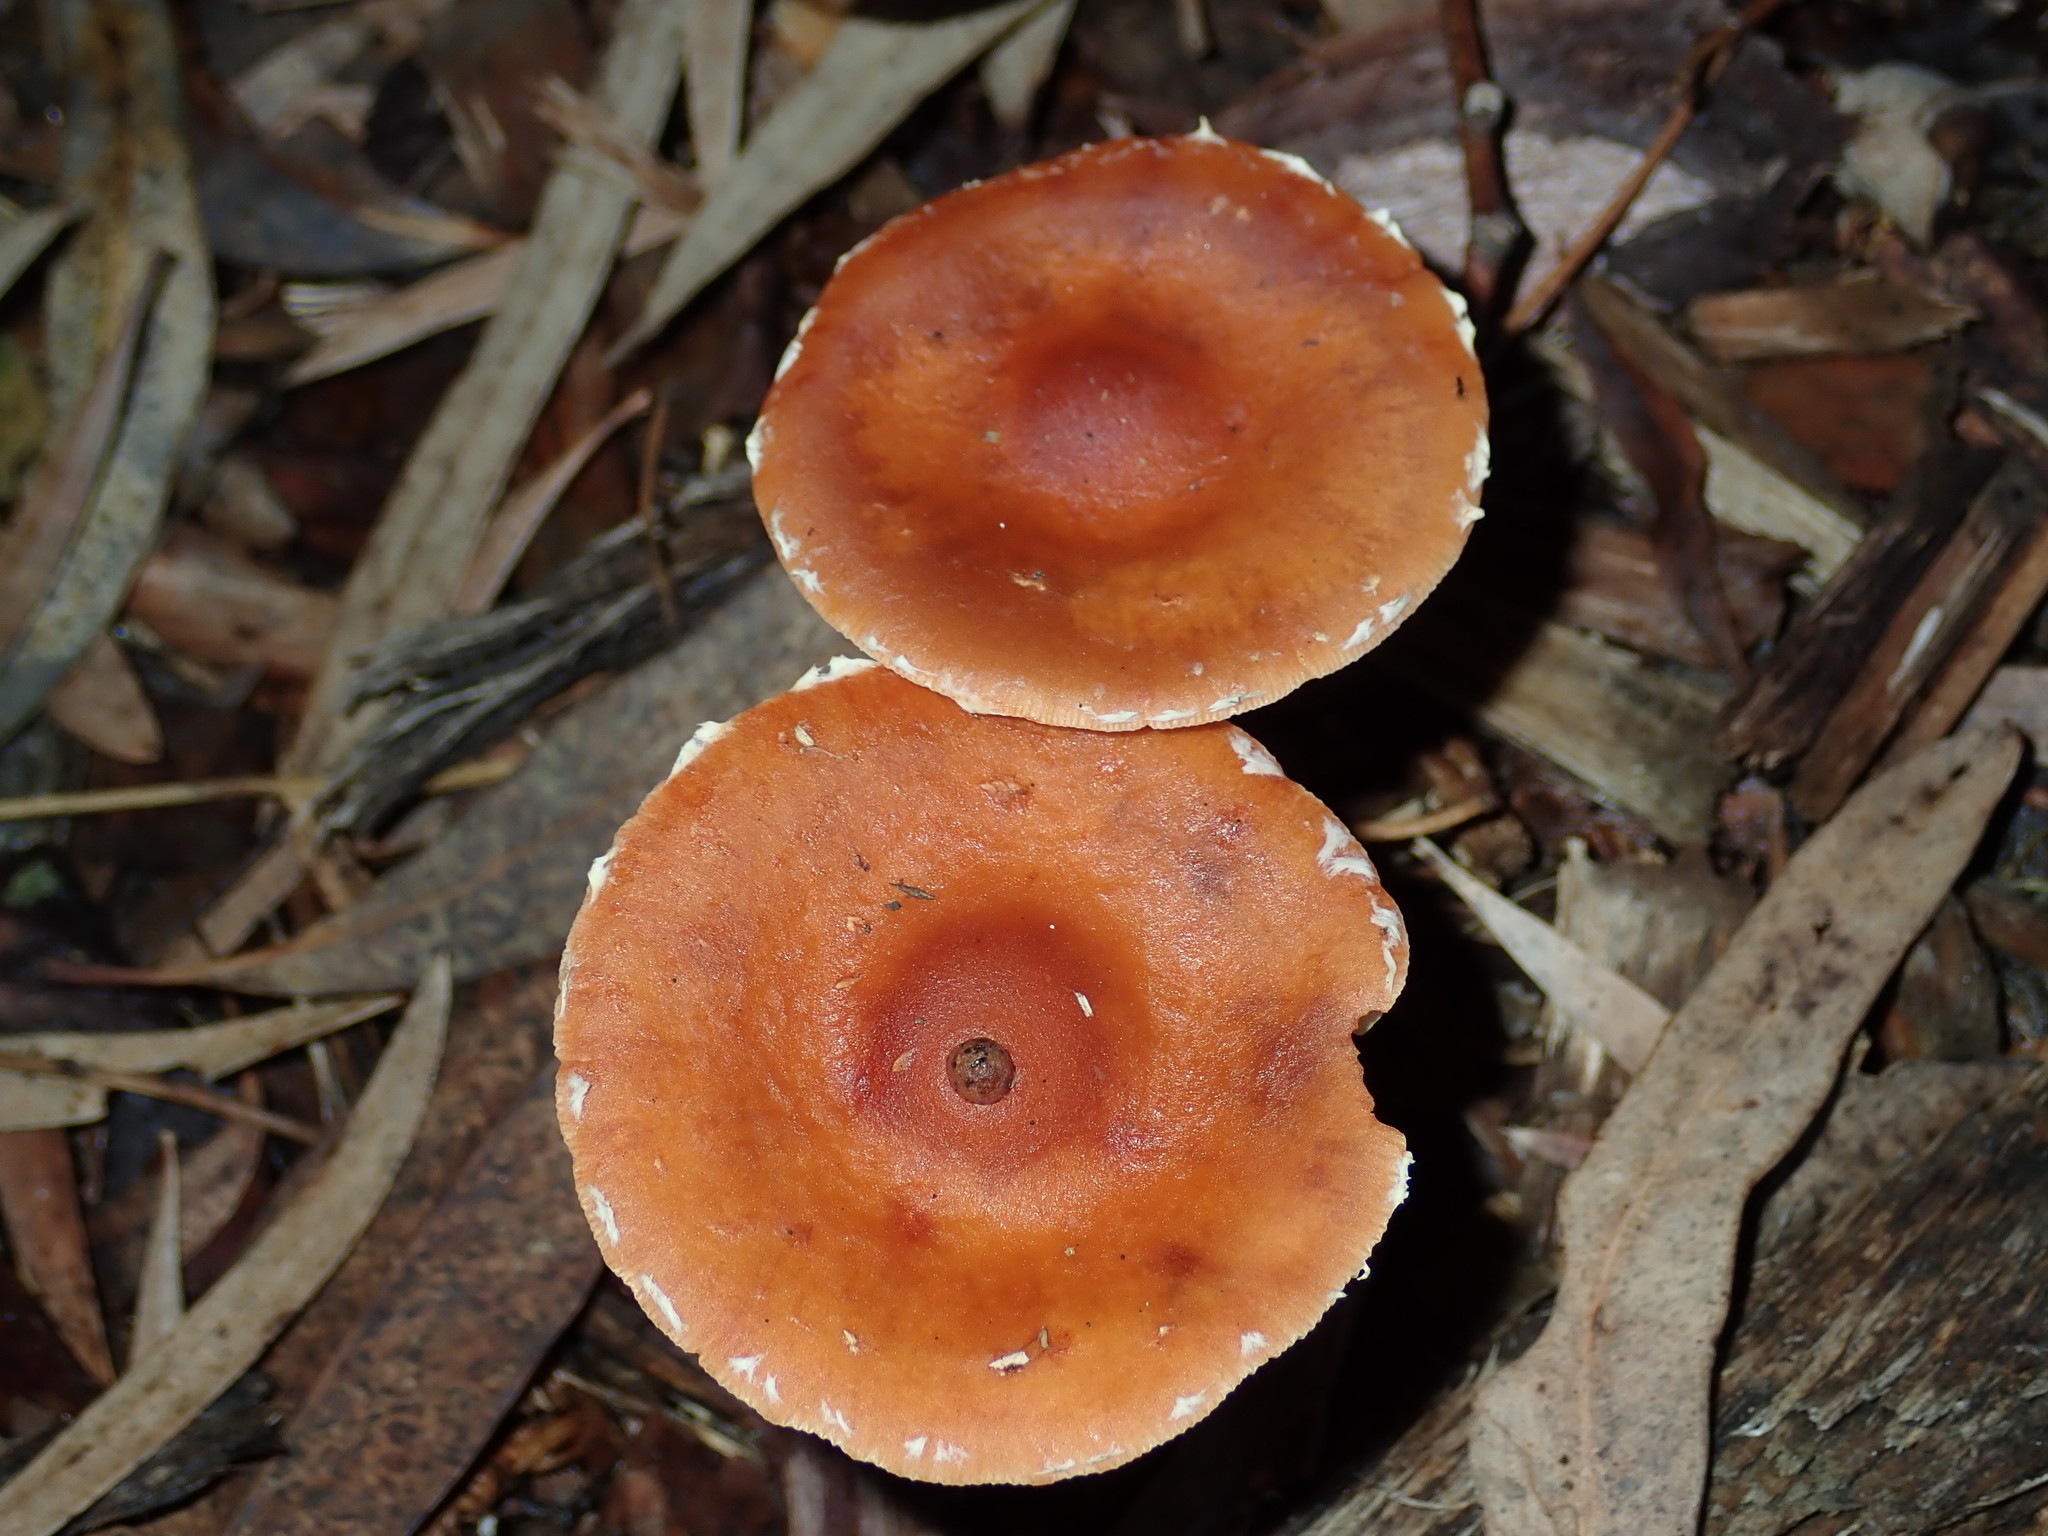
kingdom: Fungi
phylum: Basidiomycota
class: Agaricomycetes
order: Agaricales
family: Strophariaceae
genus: Leratiomyces
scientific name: Leratiomyces ceres
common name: Redlead roundhead
